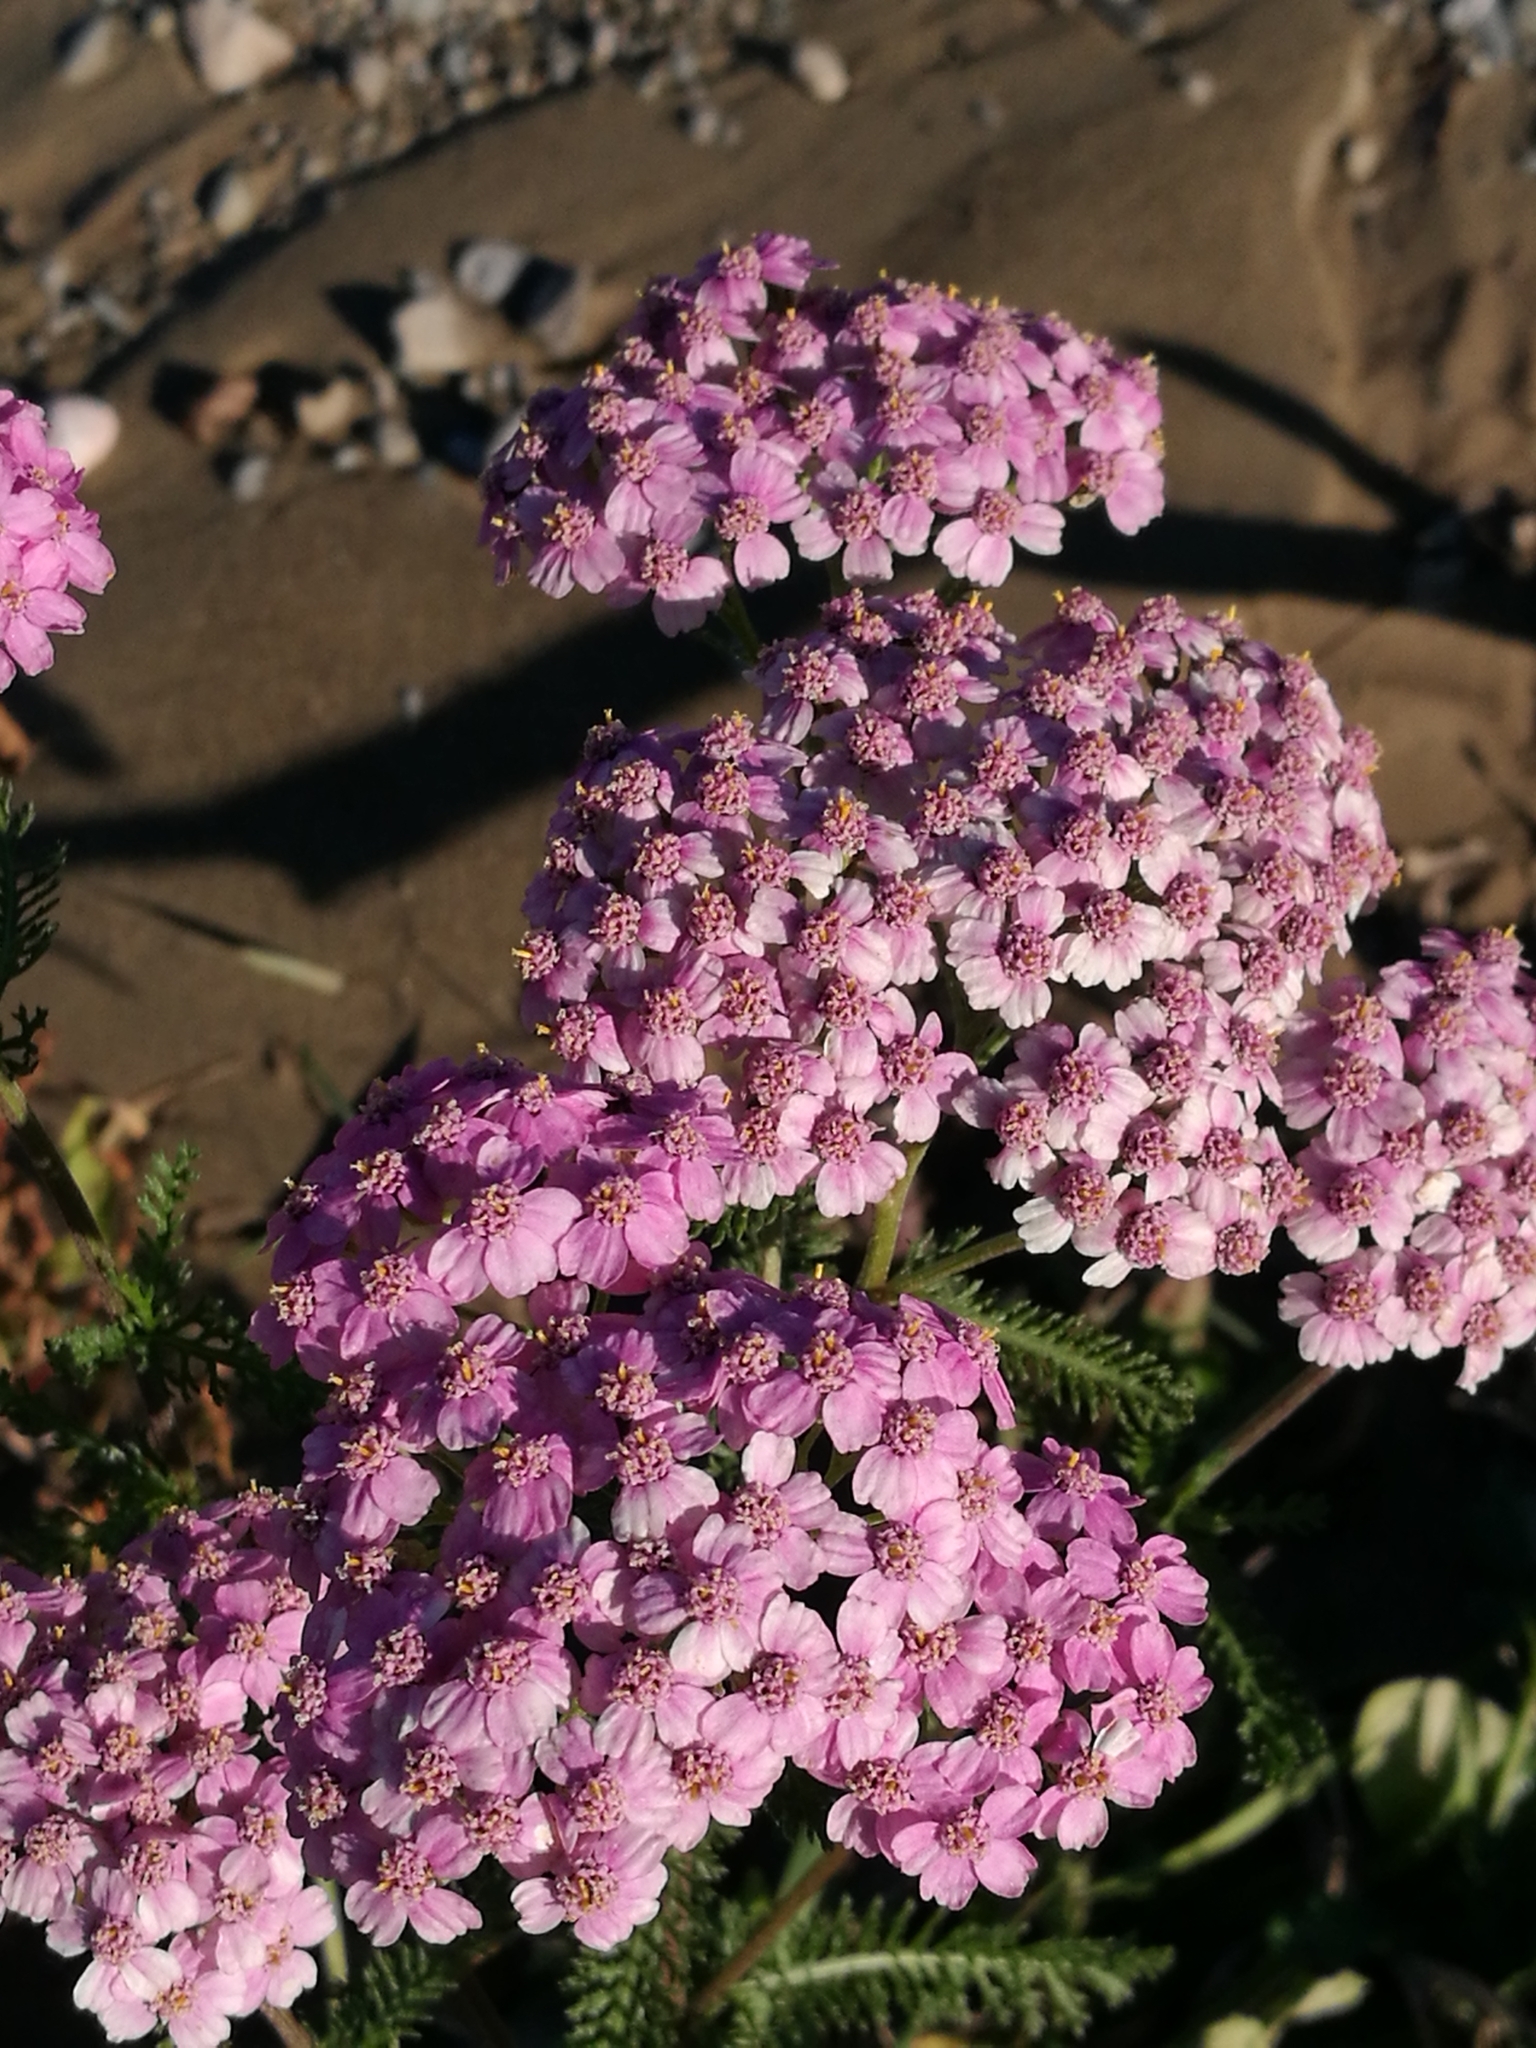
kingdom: Plantae
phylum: Tracheophyta
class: Magnoliopsida
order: Asterales
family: Asteraceae
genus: Achillea
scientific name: Achillea millefolium
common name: Yarrow
